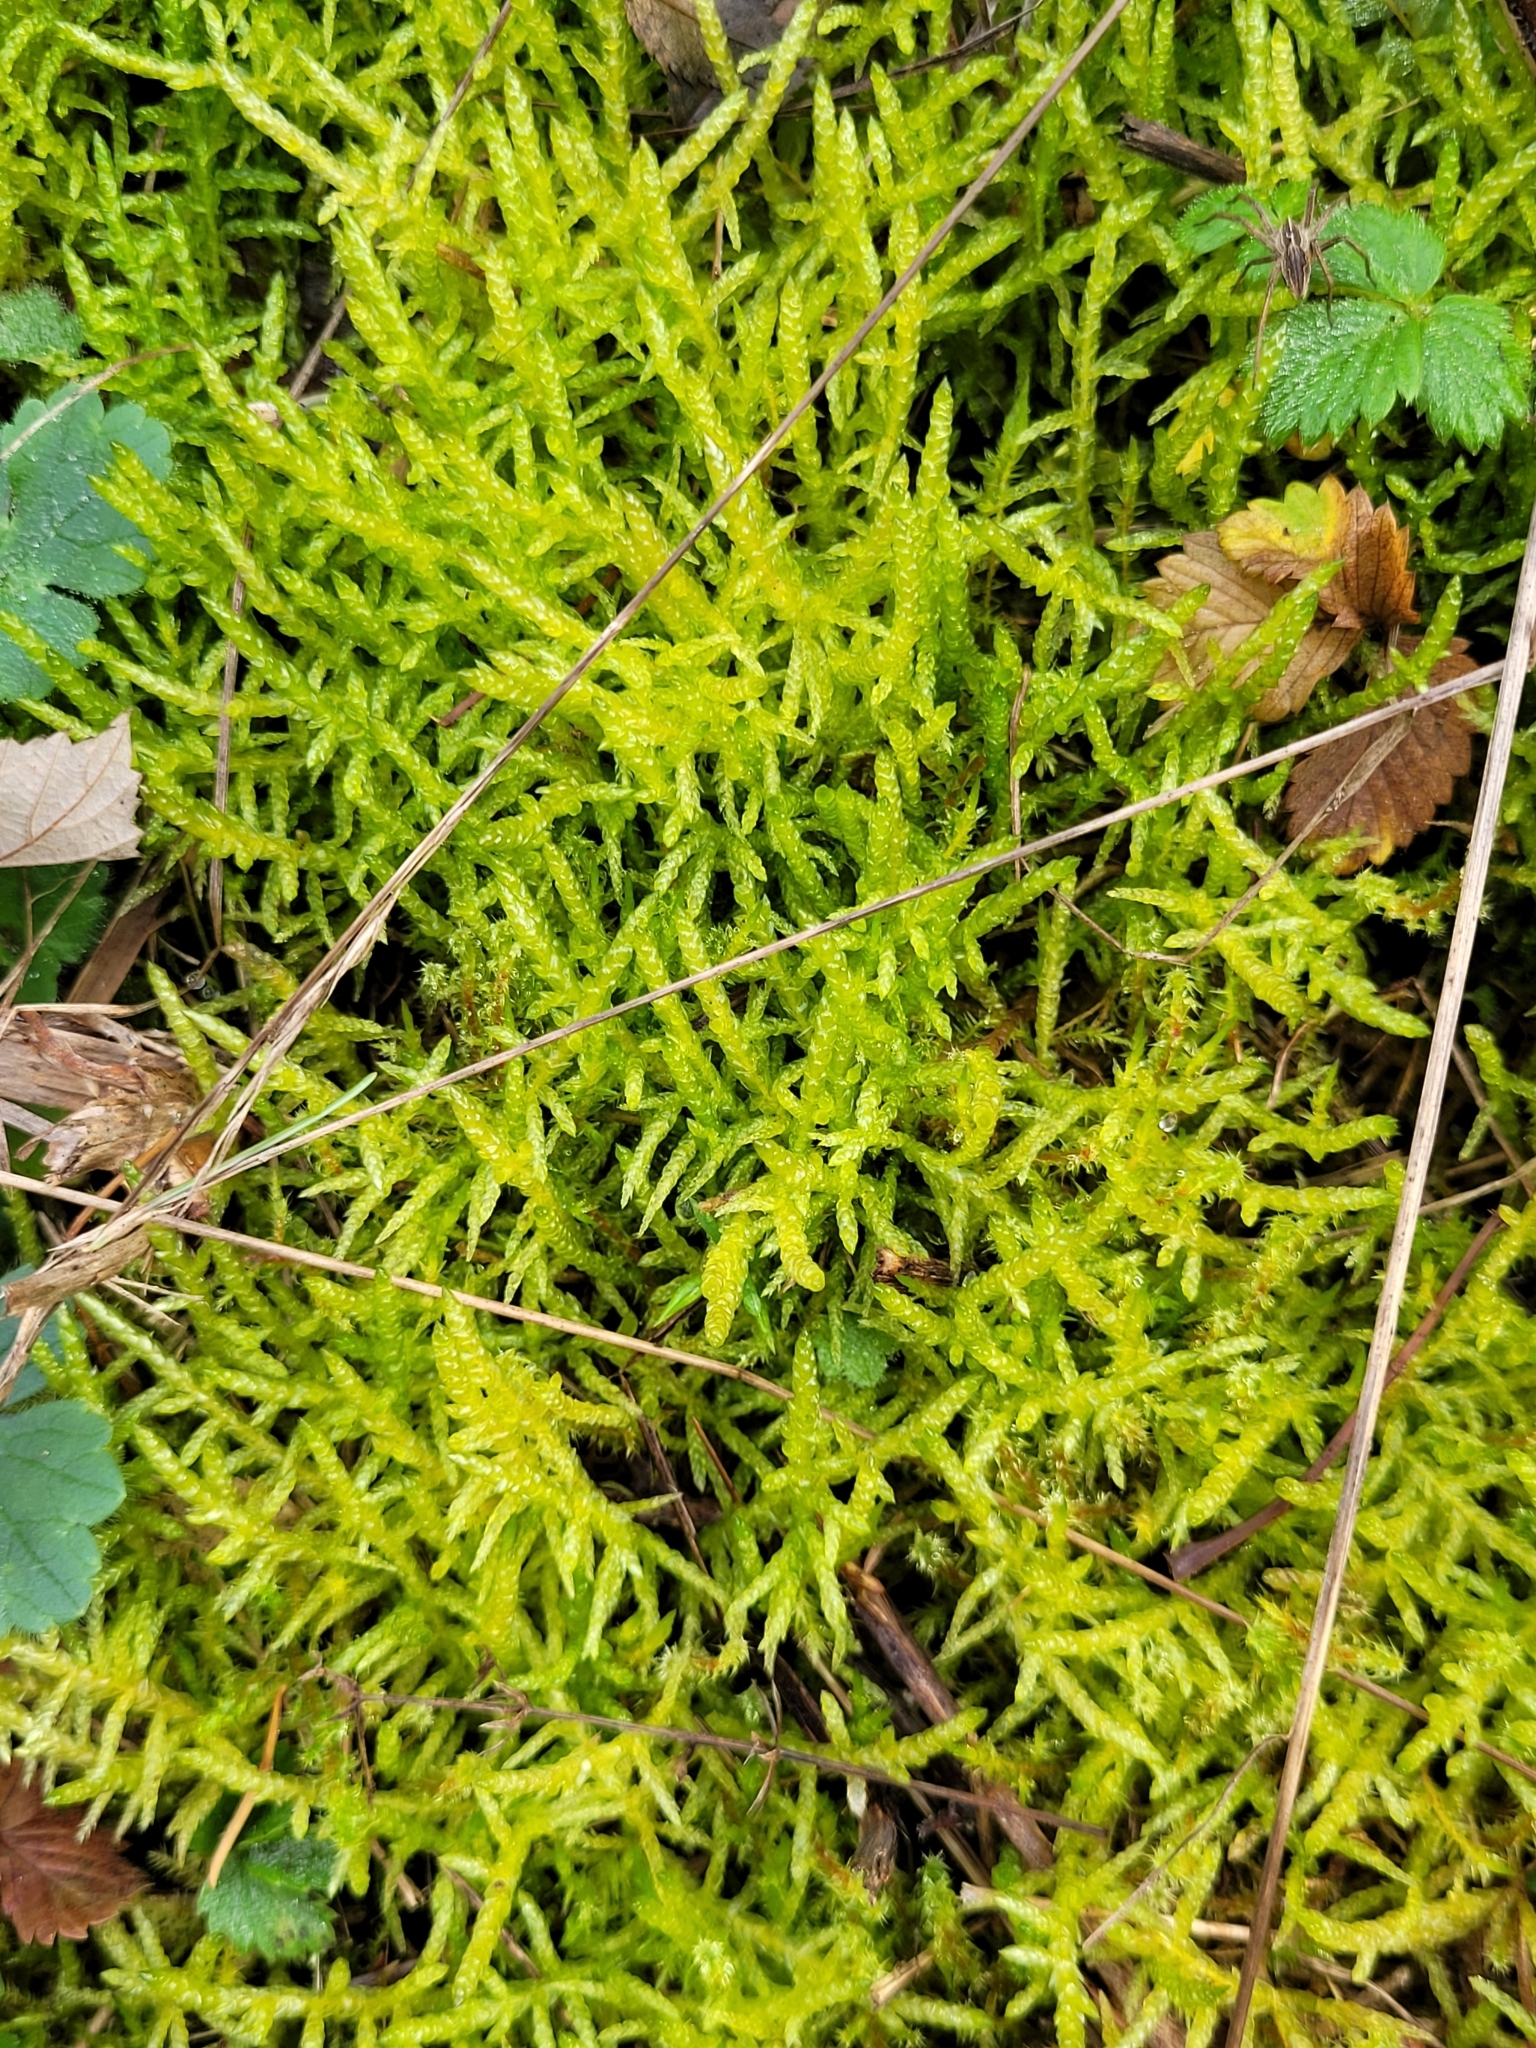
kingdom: Plantae
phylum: Bryophyta
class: Bryopsida
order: Hypnales
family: Brachytheciaceae
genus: Pseudoscleropodium
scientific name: Pseudoscleropodium purum
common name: Neat feather-moss
